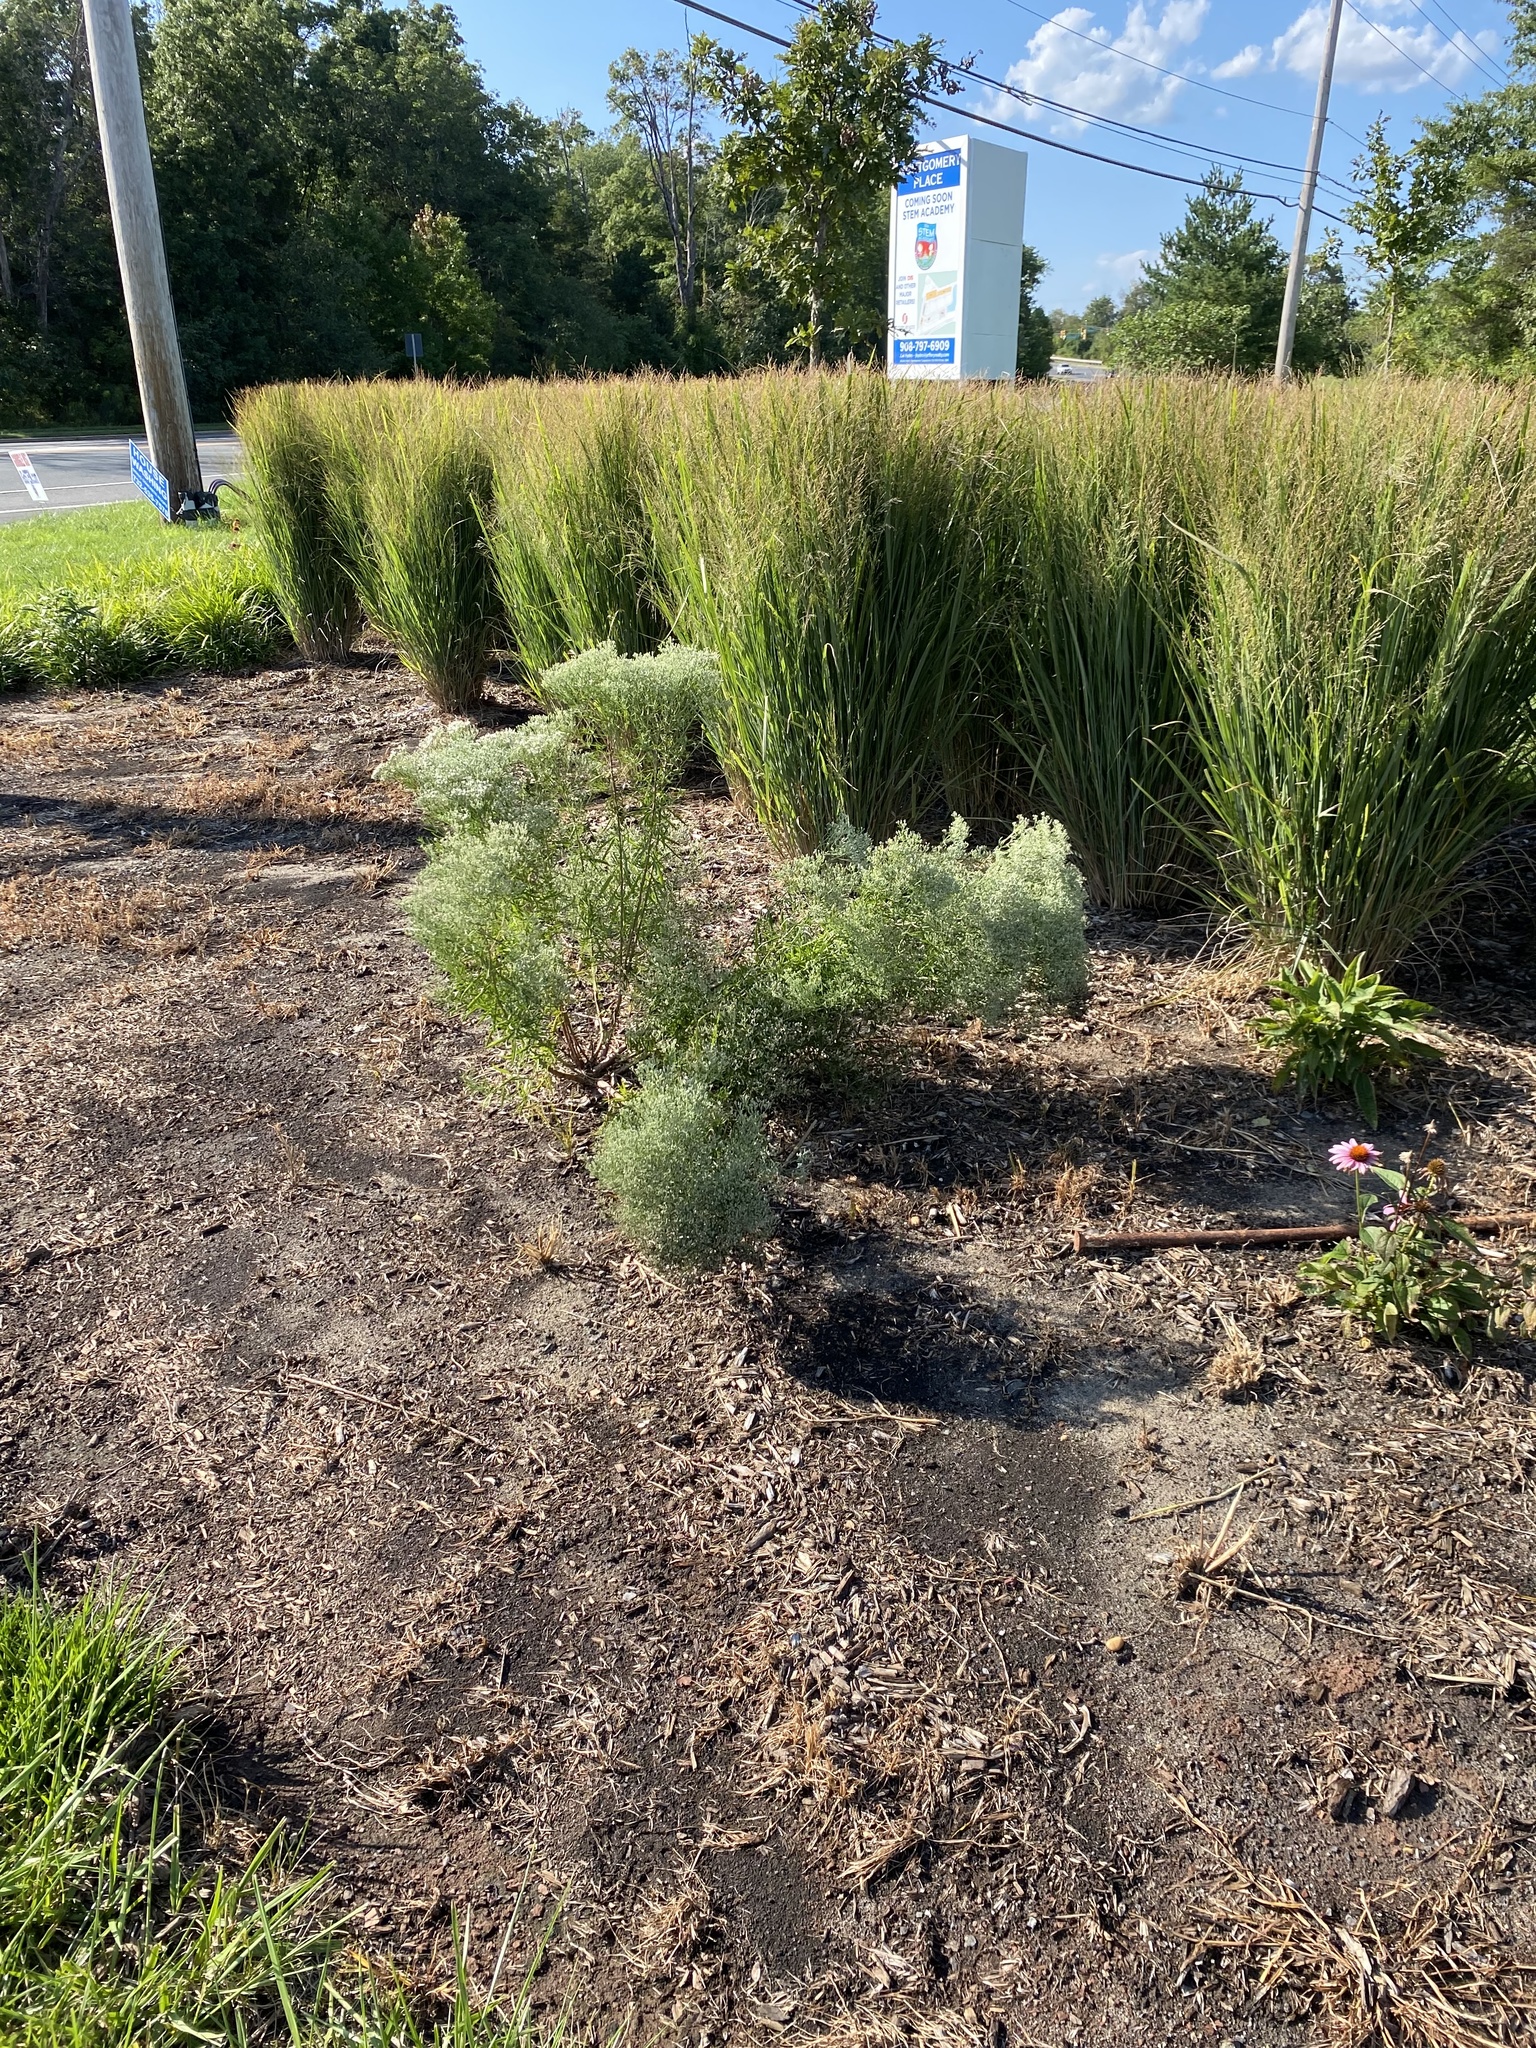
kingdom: Plantae
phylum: Tracheophyta
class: Magnoliopsida
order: Asterales
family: Asteraceae
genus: Eupatorium
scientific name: Eupatorium torreyanum
